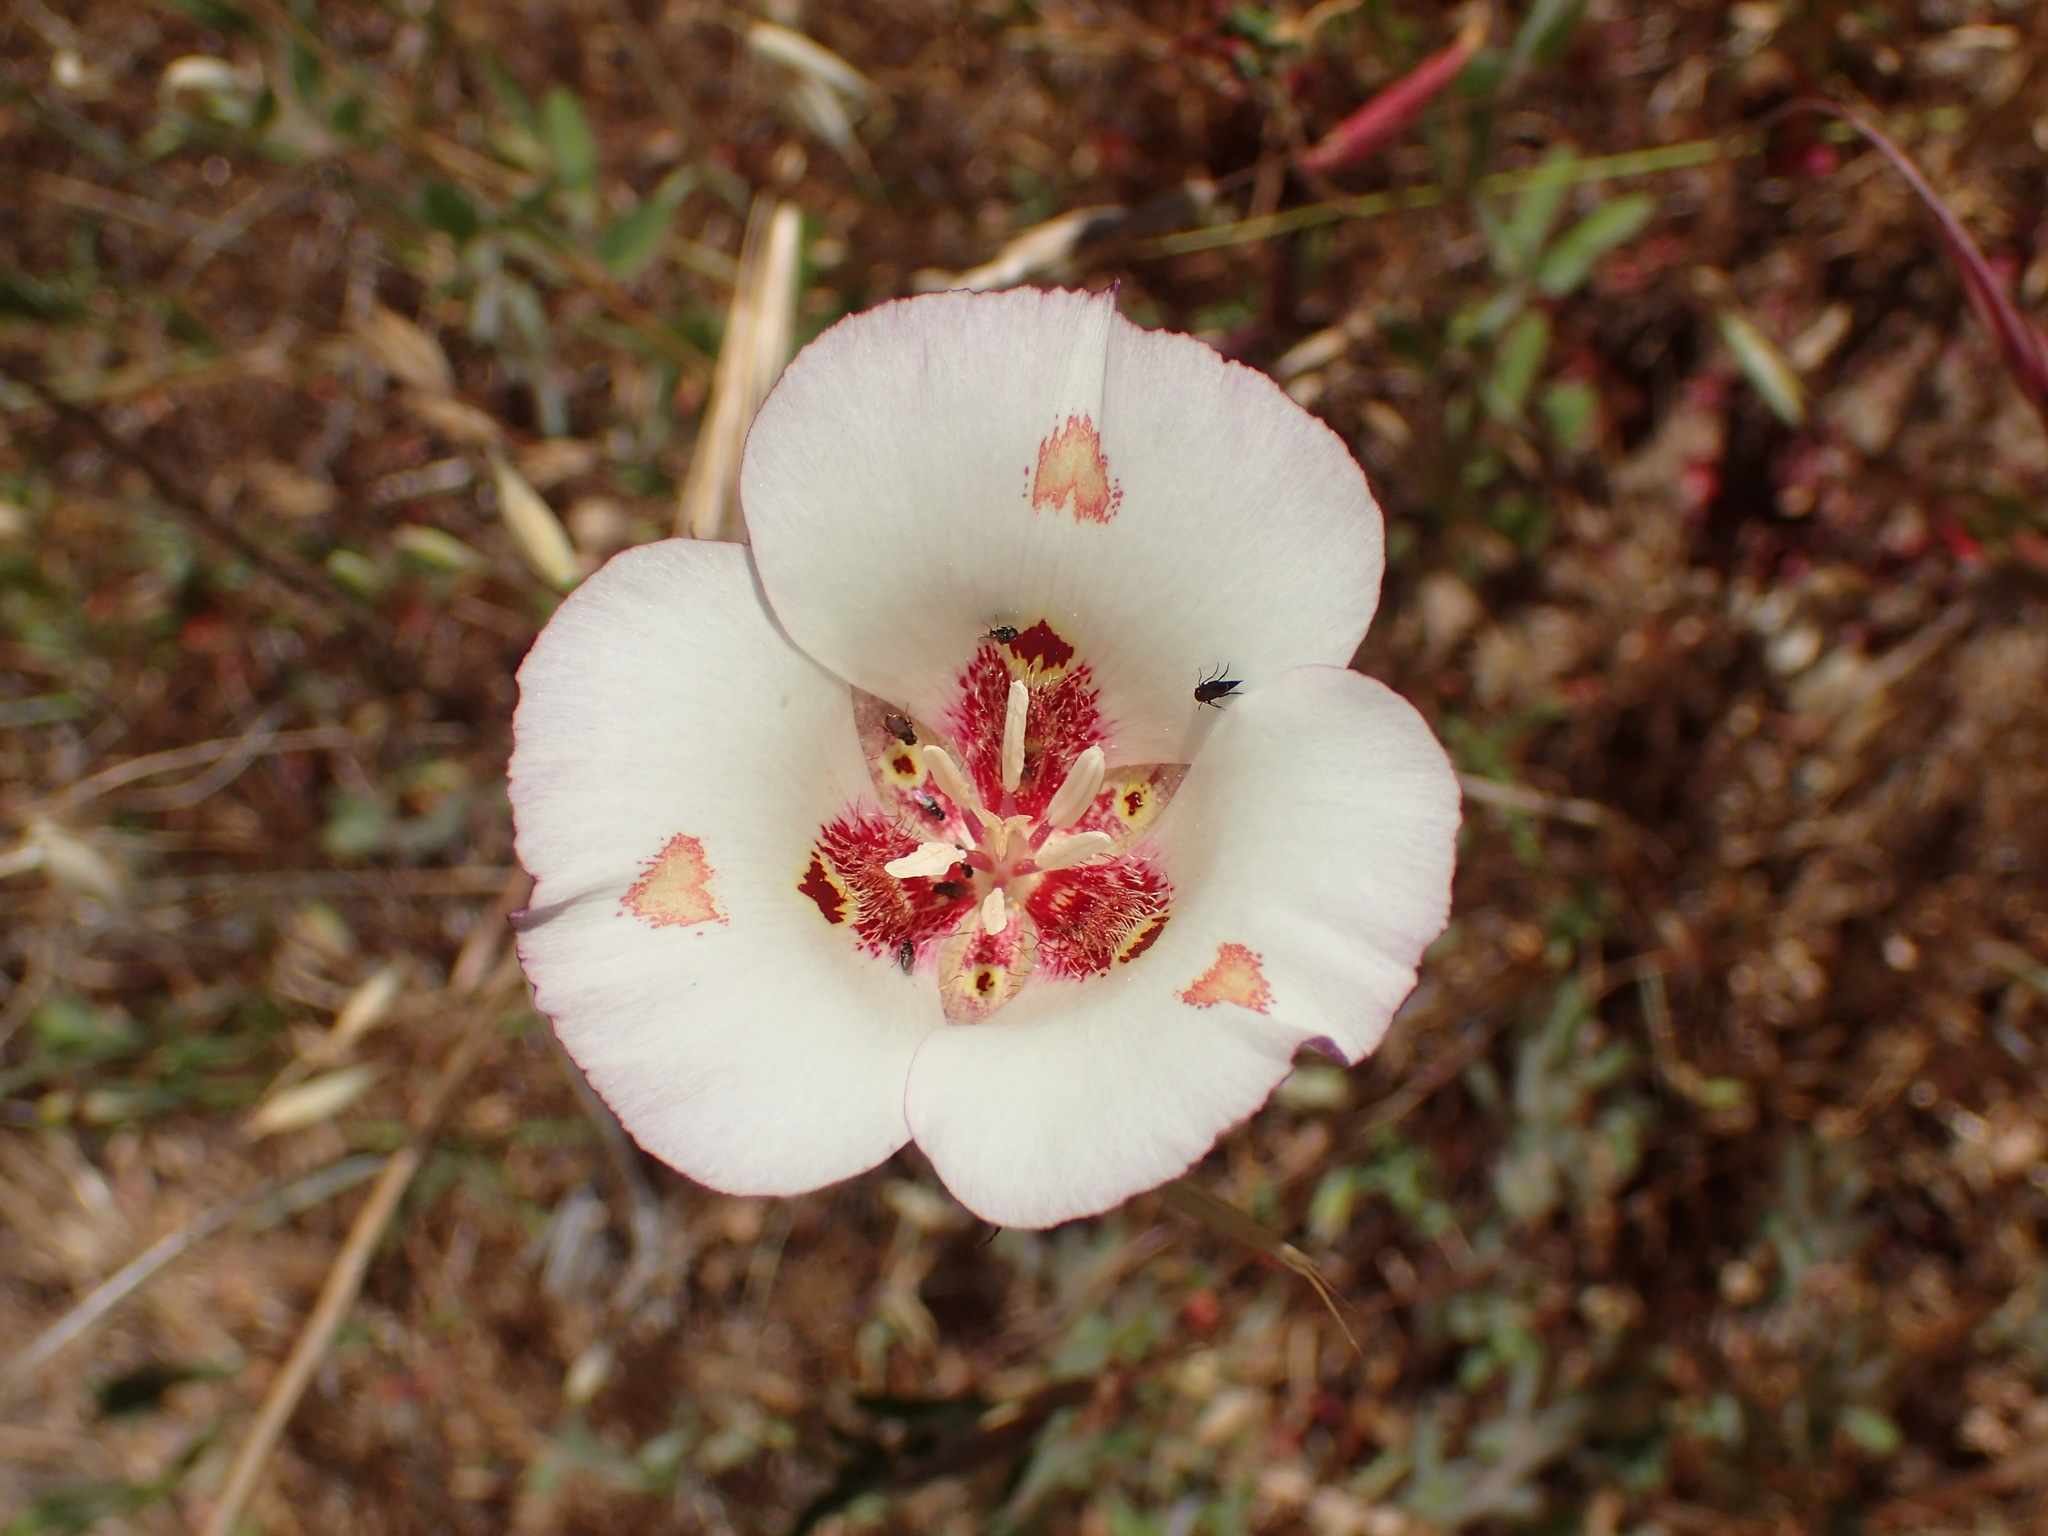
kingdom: Plantae
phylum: Tracheophyta
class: Liliopsida
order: Liliales
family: Liliaceae
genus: Calochortus
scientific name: Calochortus venustus
